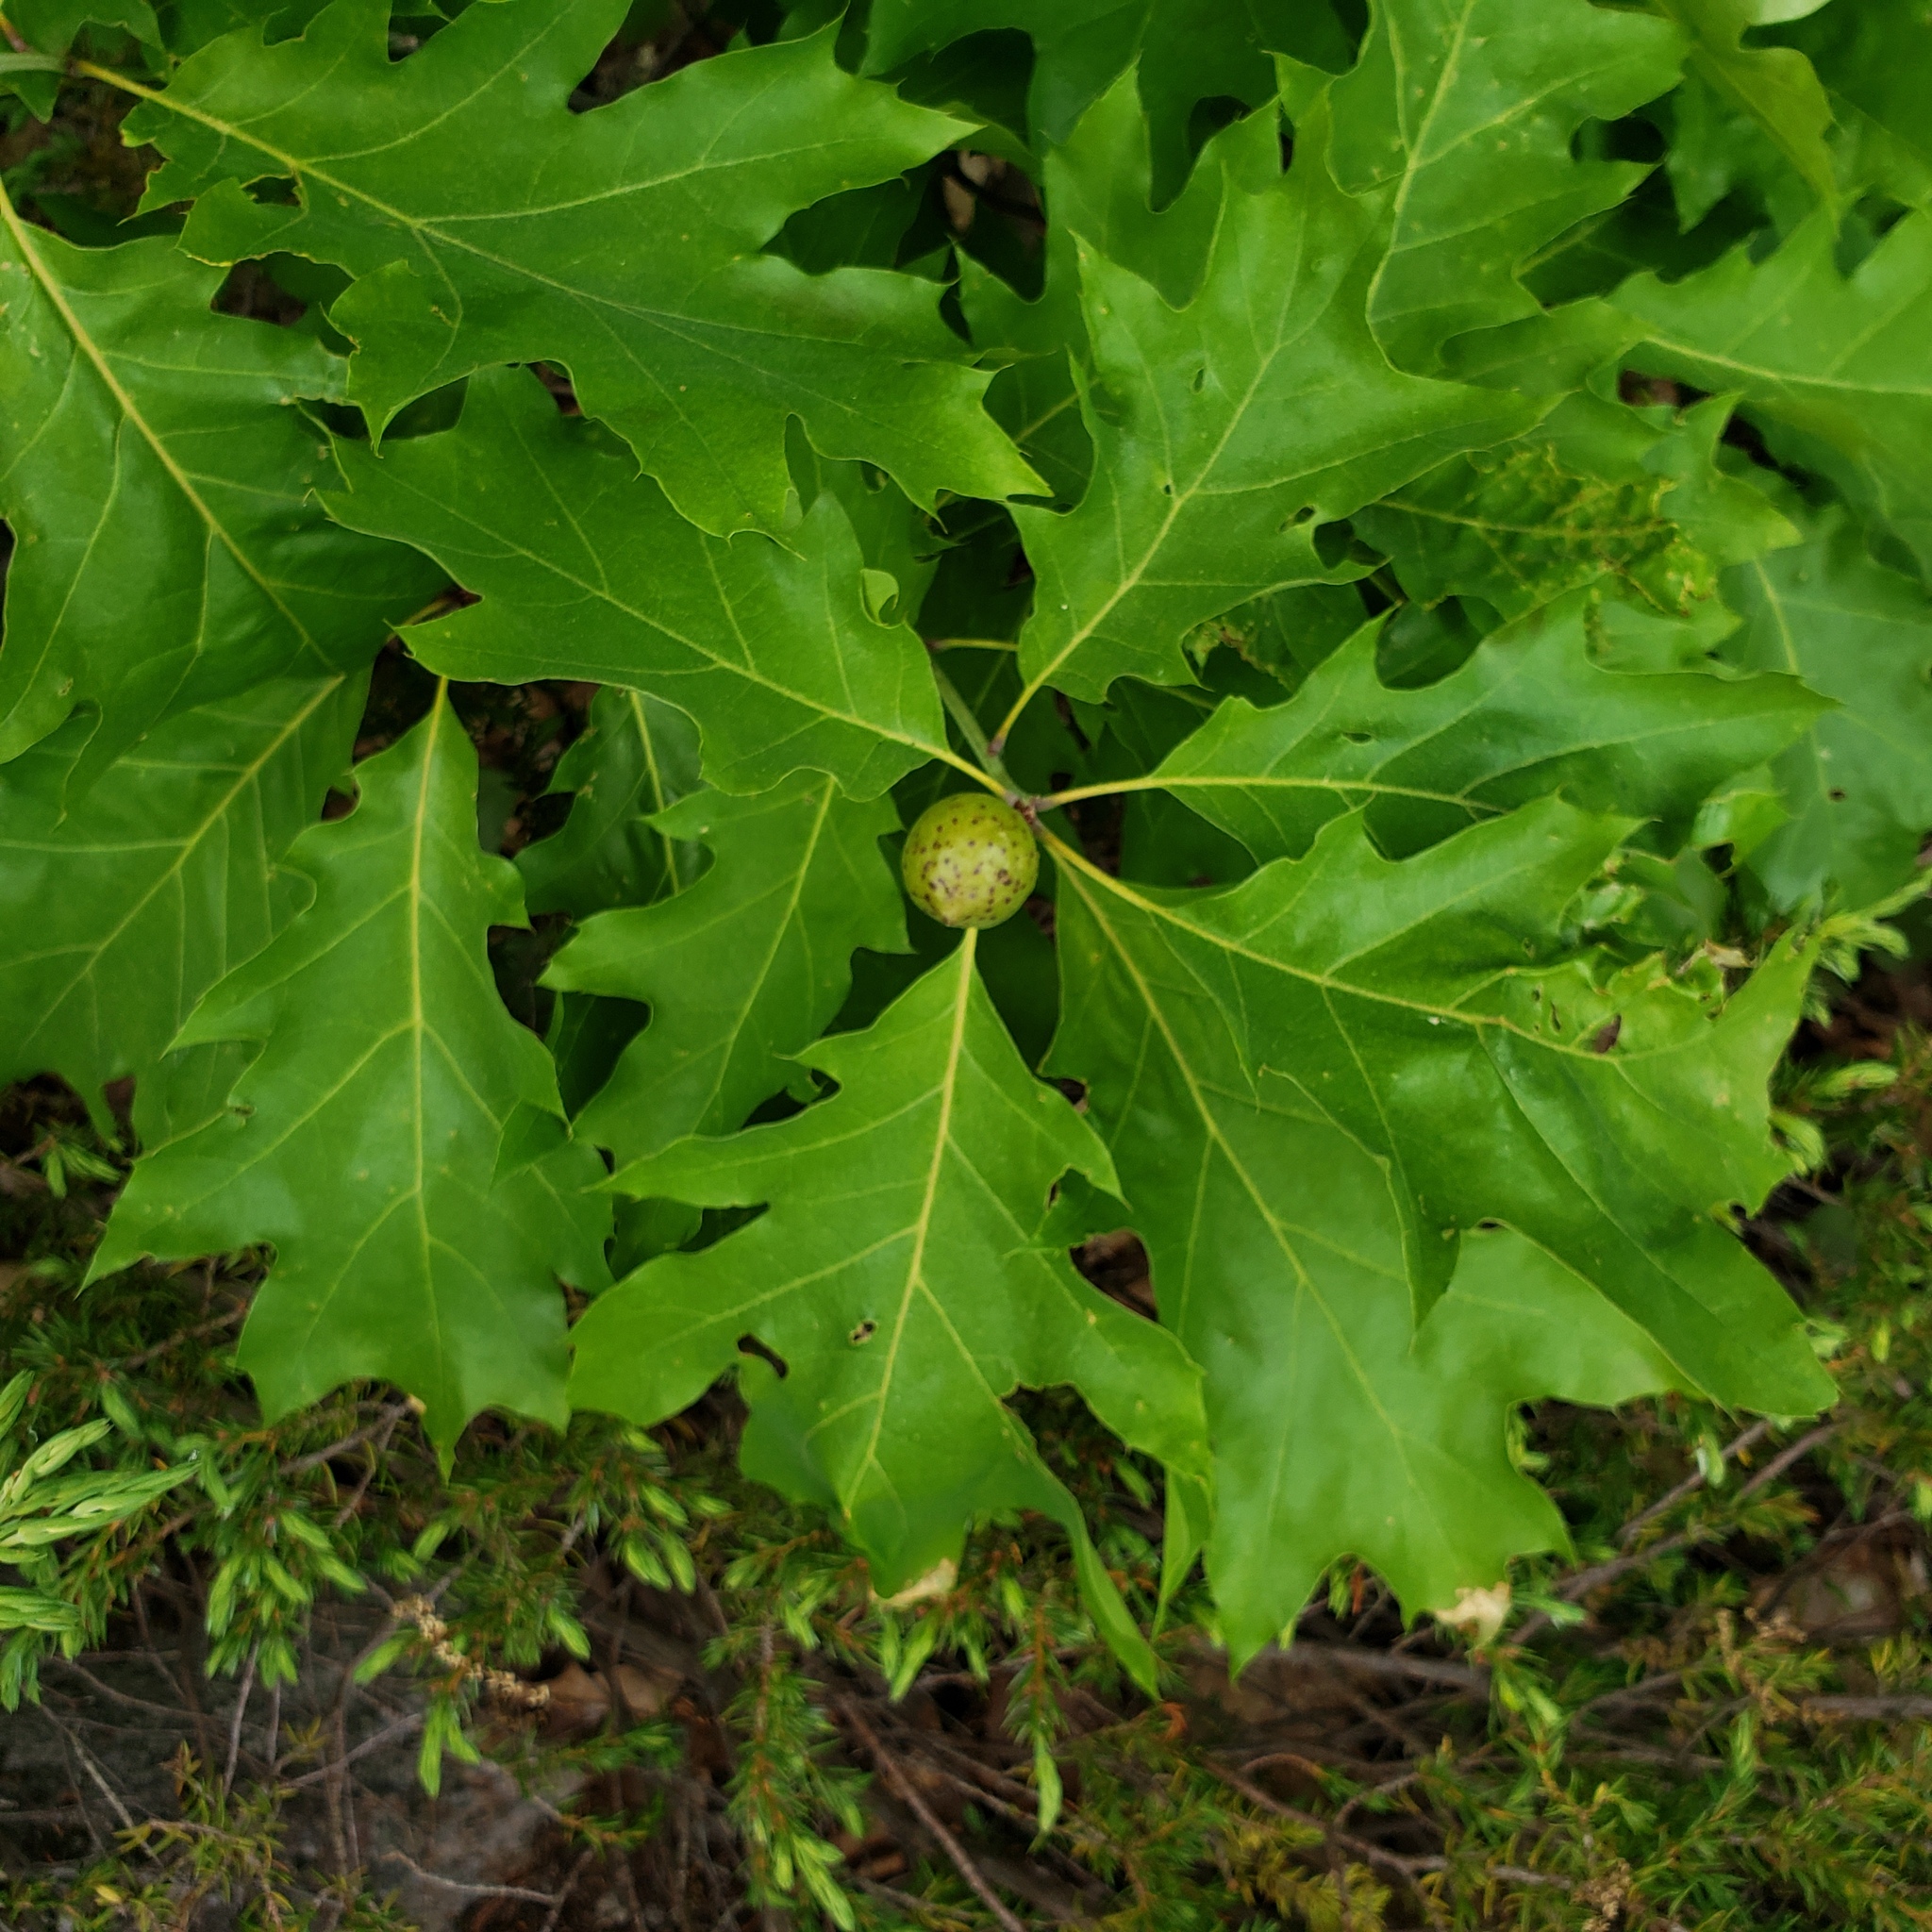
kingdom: Animalia
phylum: Arthropoda
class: Insecta
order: Hymenoptera
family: Cynipidae
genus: Amphibolips
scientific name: Amphibolips
